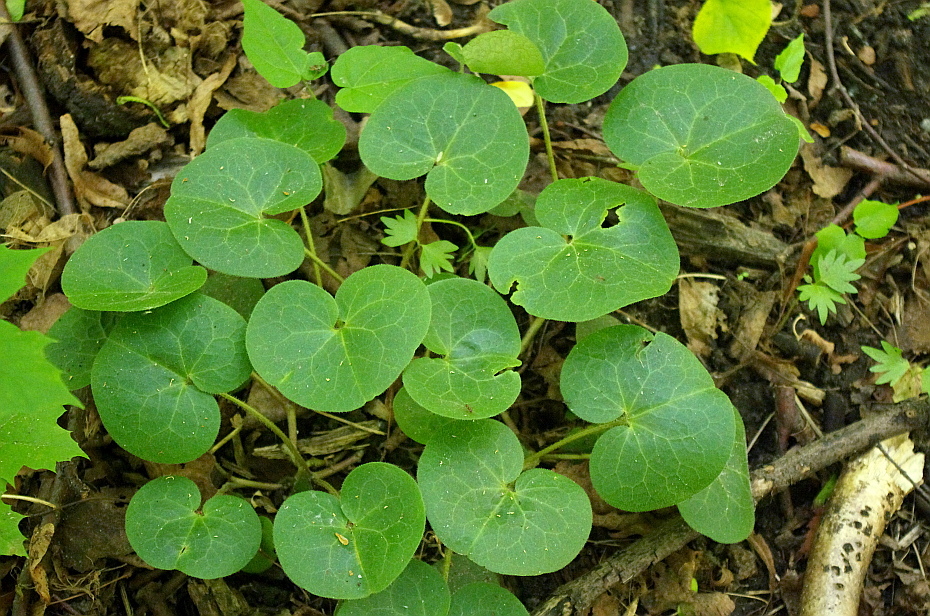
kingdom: Plantae
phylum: Tracheophyta
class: Magnoliopsida
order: Piperales
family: Aristolochiaceae
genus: Asarum
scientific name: Asarum europaeum
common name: Asarabacca
